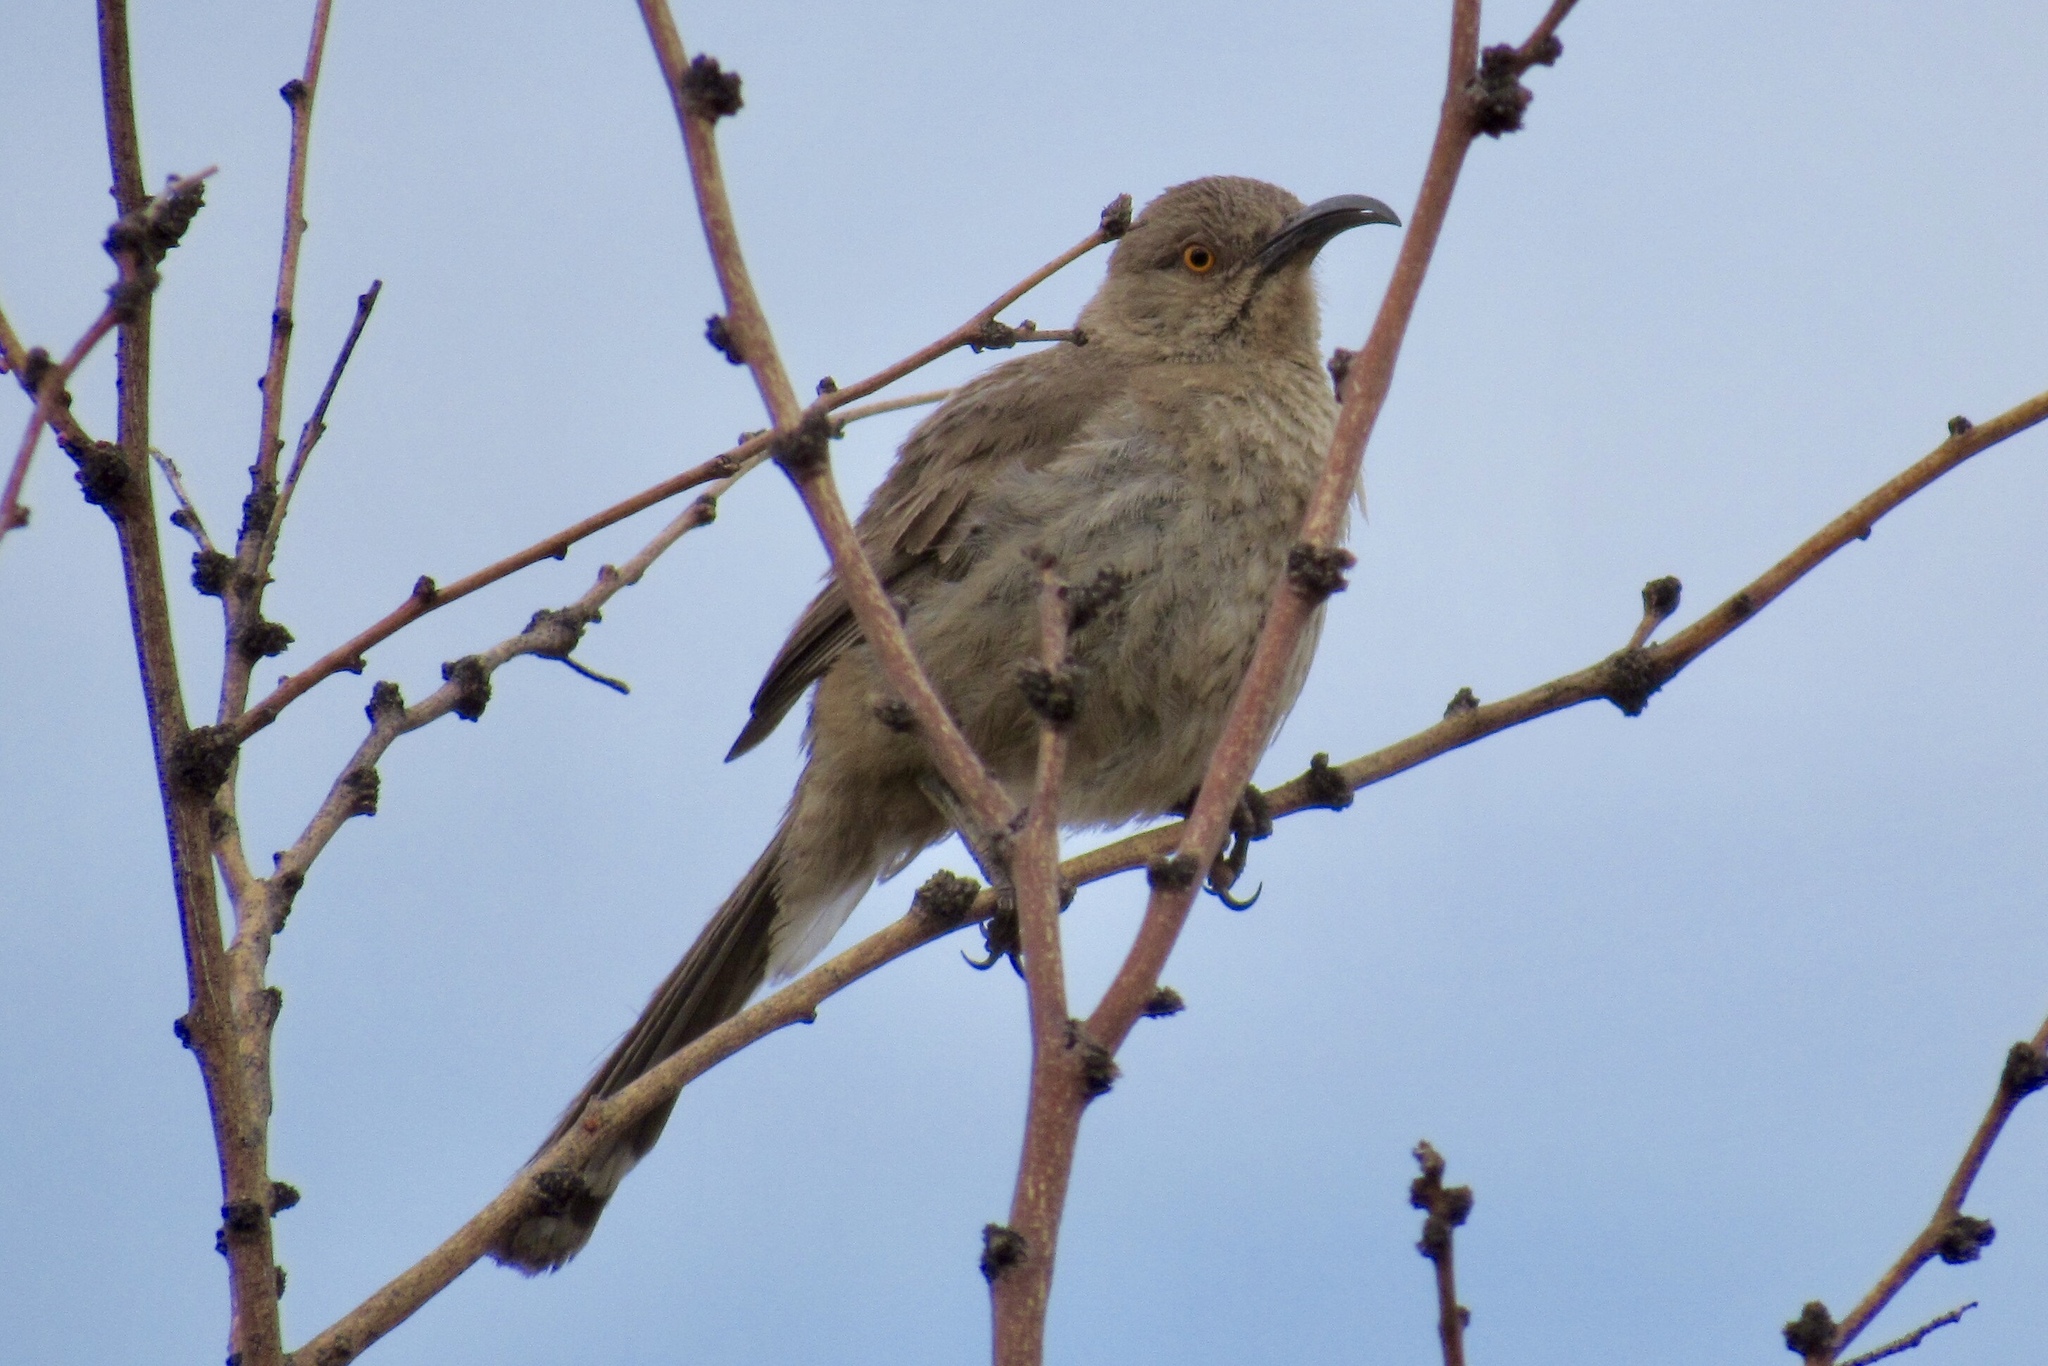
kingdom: Animalia
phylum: Chordata
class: Aves
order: Passeriformes
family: Mimidae
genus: Toxostoma
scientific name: Toxostoma curvirostre
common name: Curve-billed thrasher
